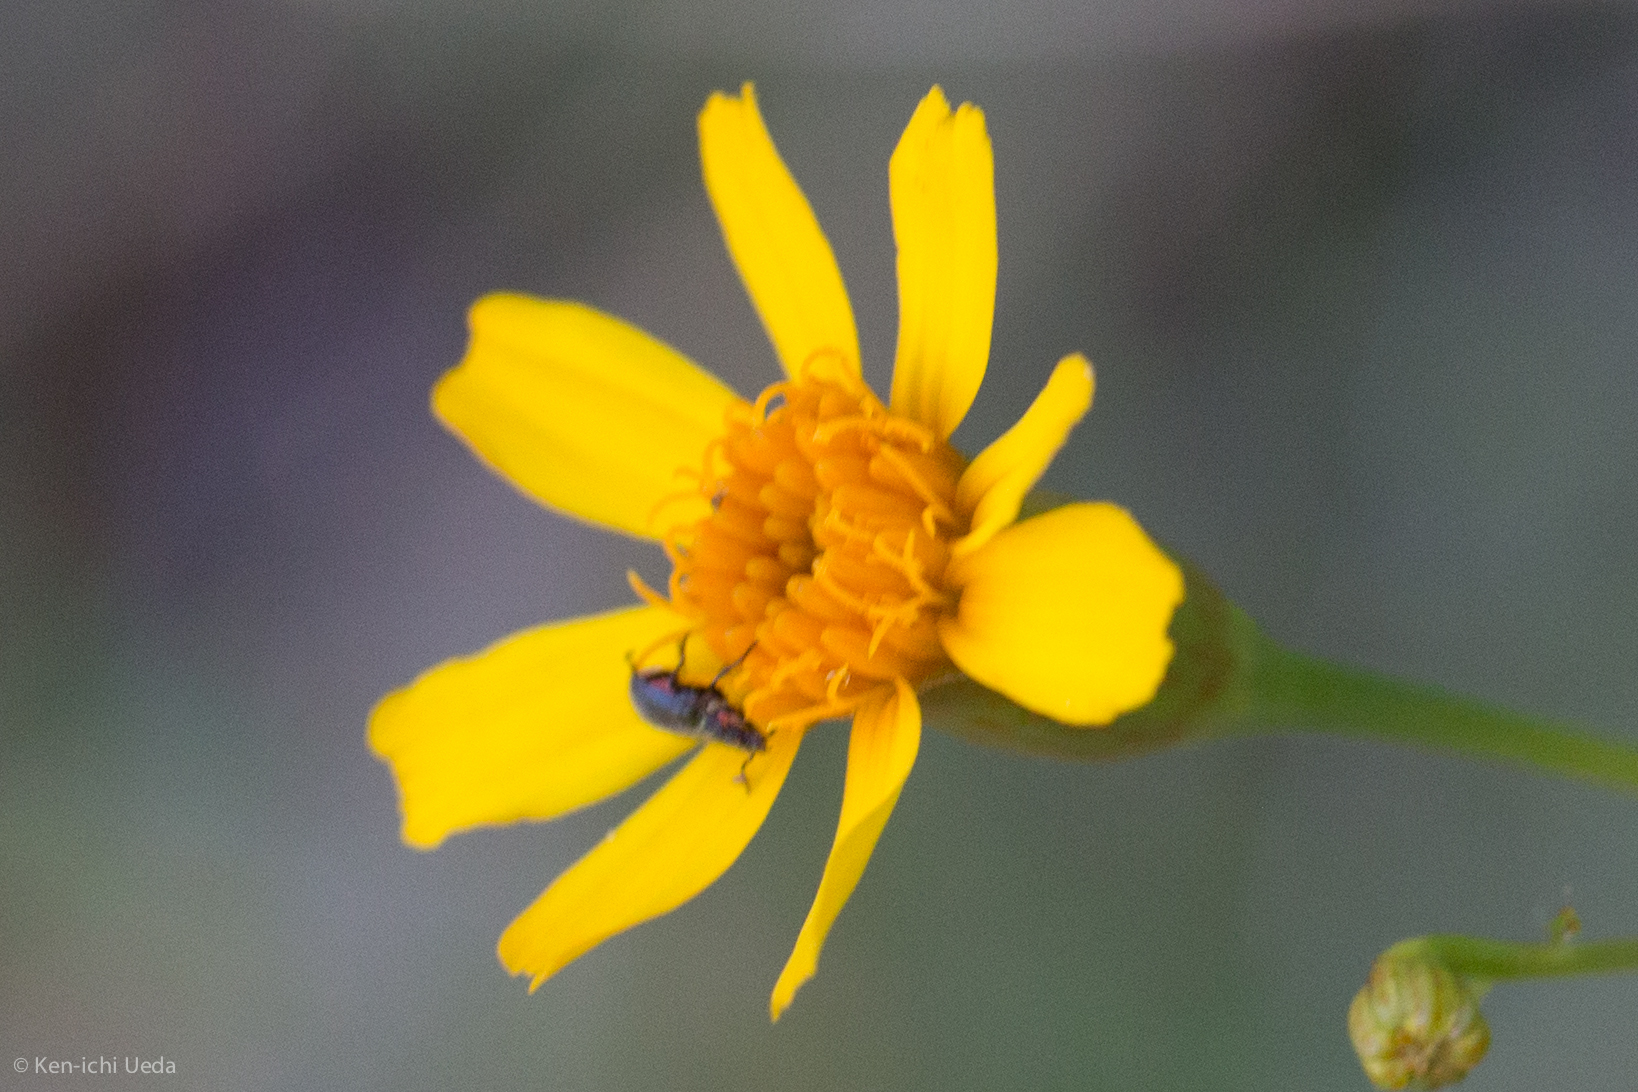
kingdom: Plantae
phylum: Tracheophyta
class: Magnoliopsida
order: Asterales
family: Asteraceae
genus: Tagetes
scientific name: Tagetes lemmonii
